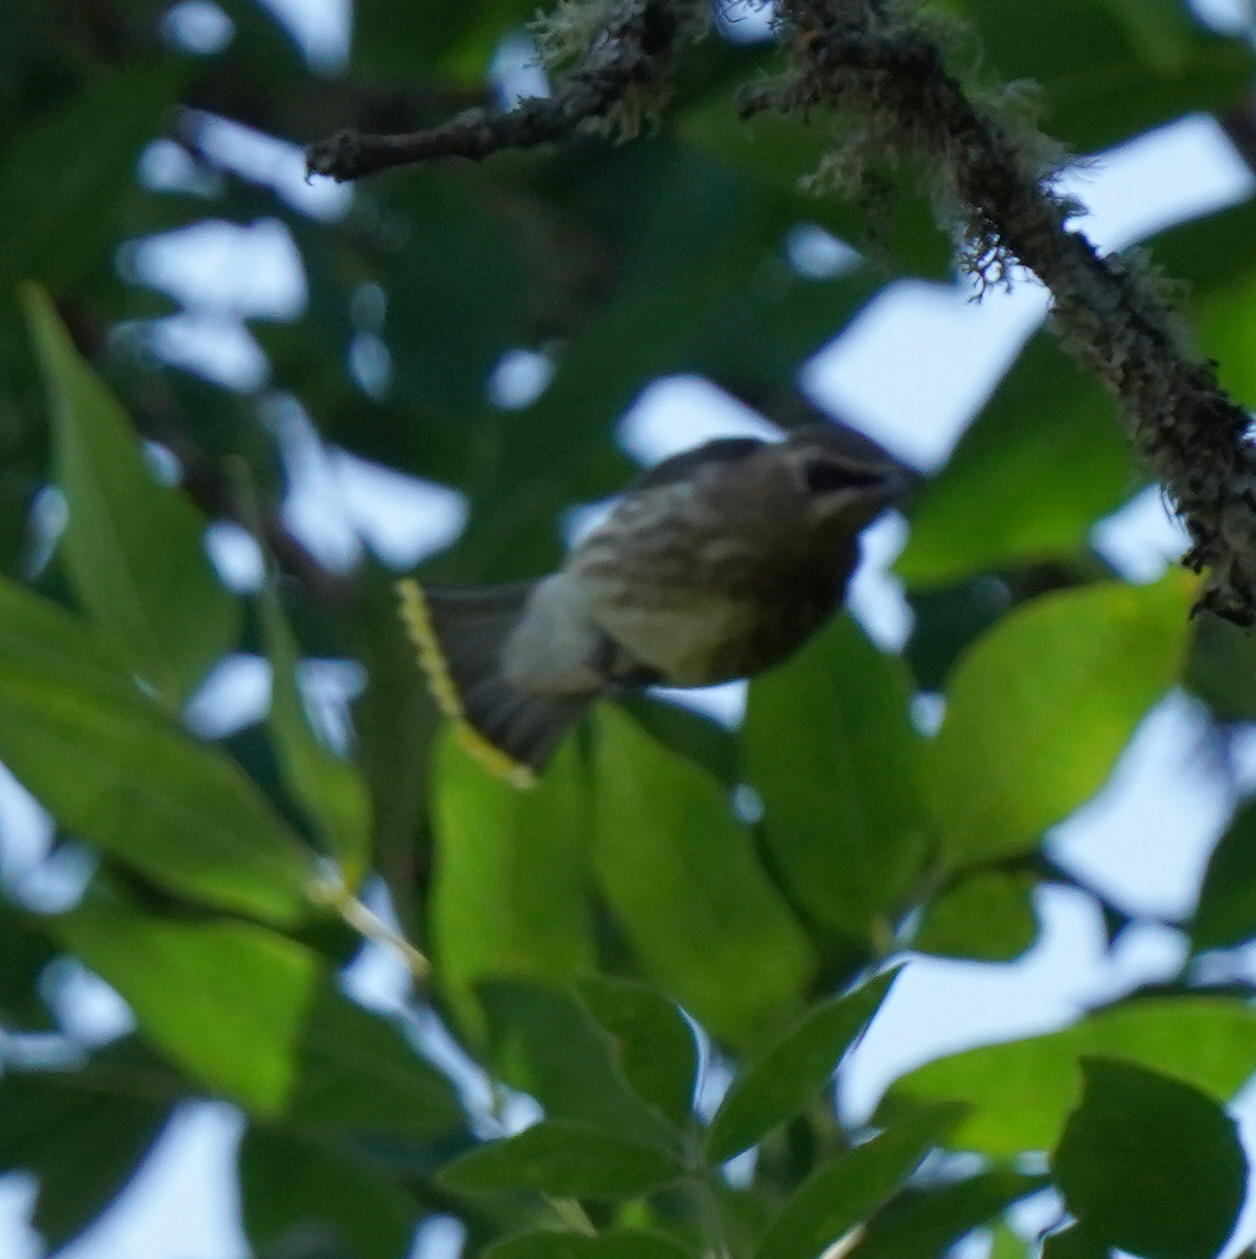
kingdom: Animalia
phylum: Chordata
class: Aves
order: Passeriformes
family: Bombycillidae
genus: Bombycilla
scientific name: Bombycilla cedrorum
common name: Cedar waxwing
